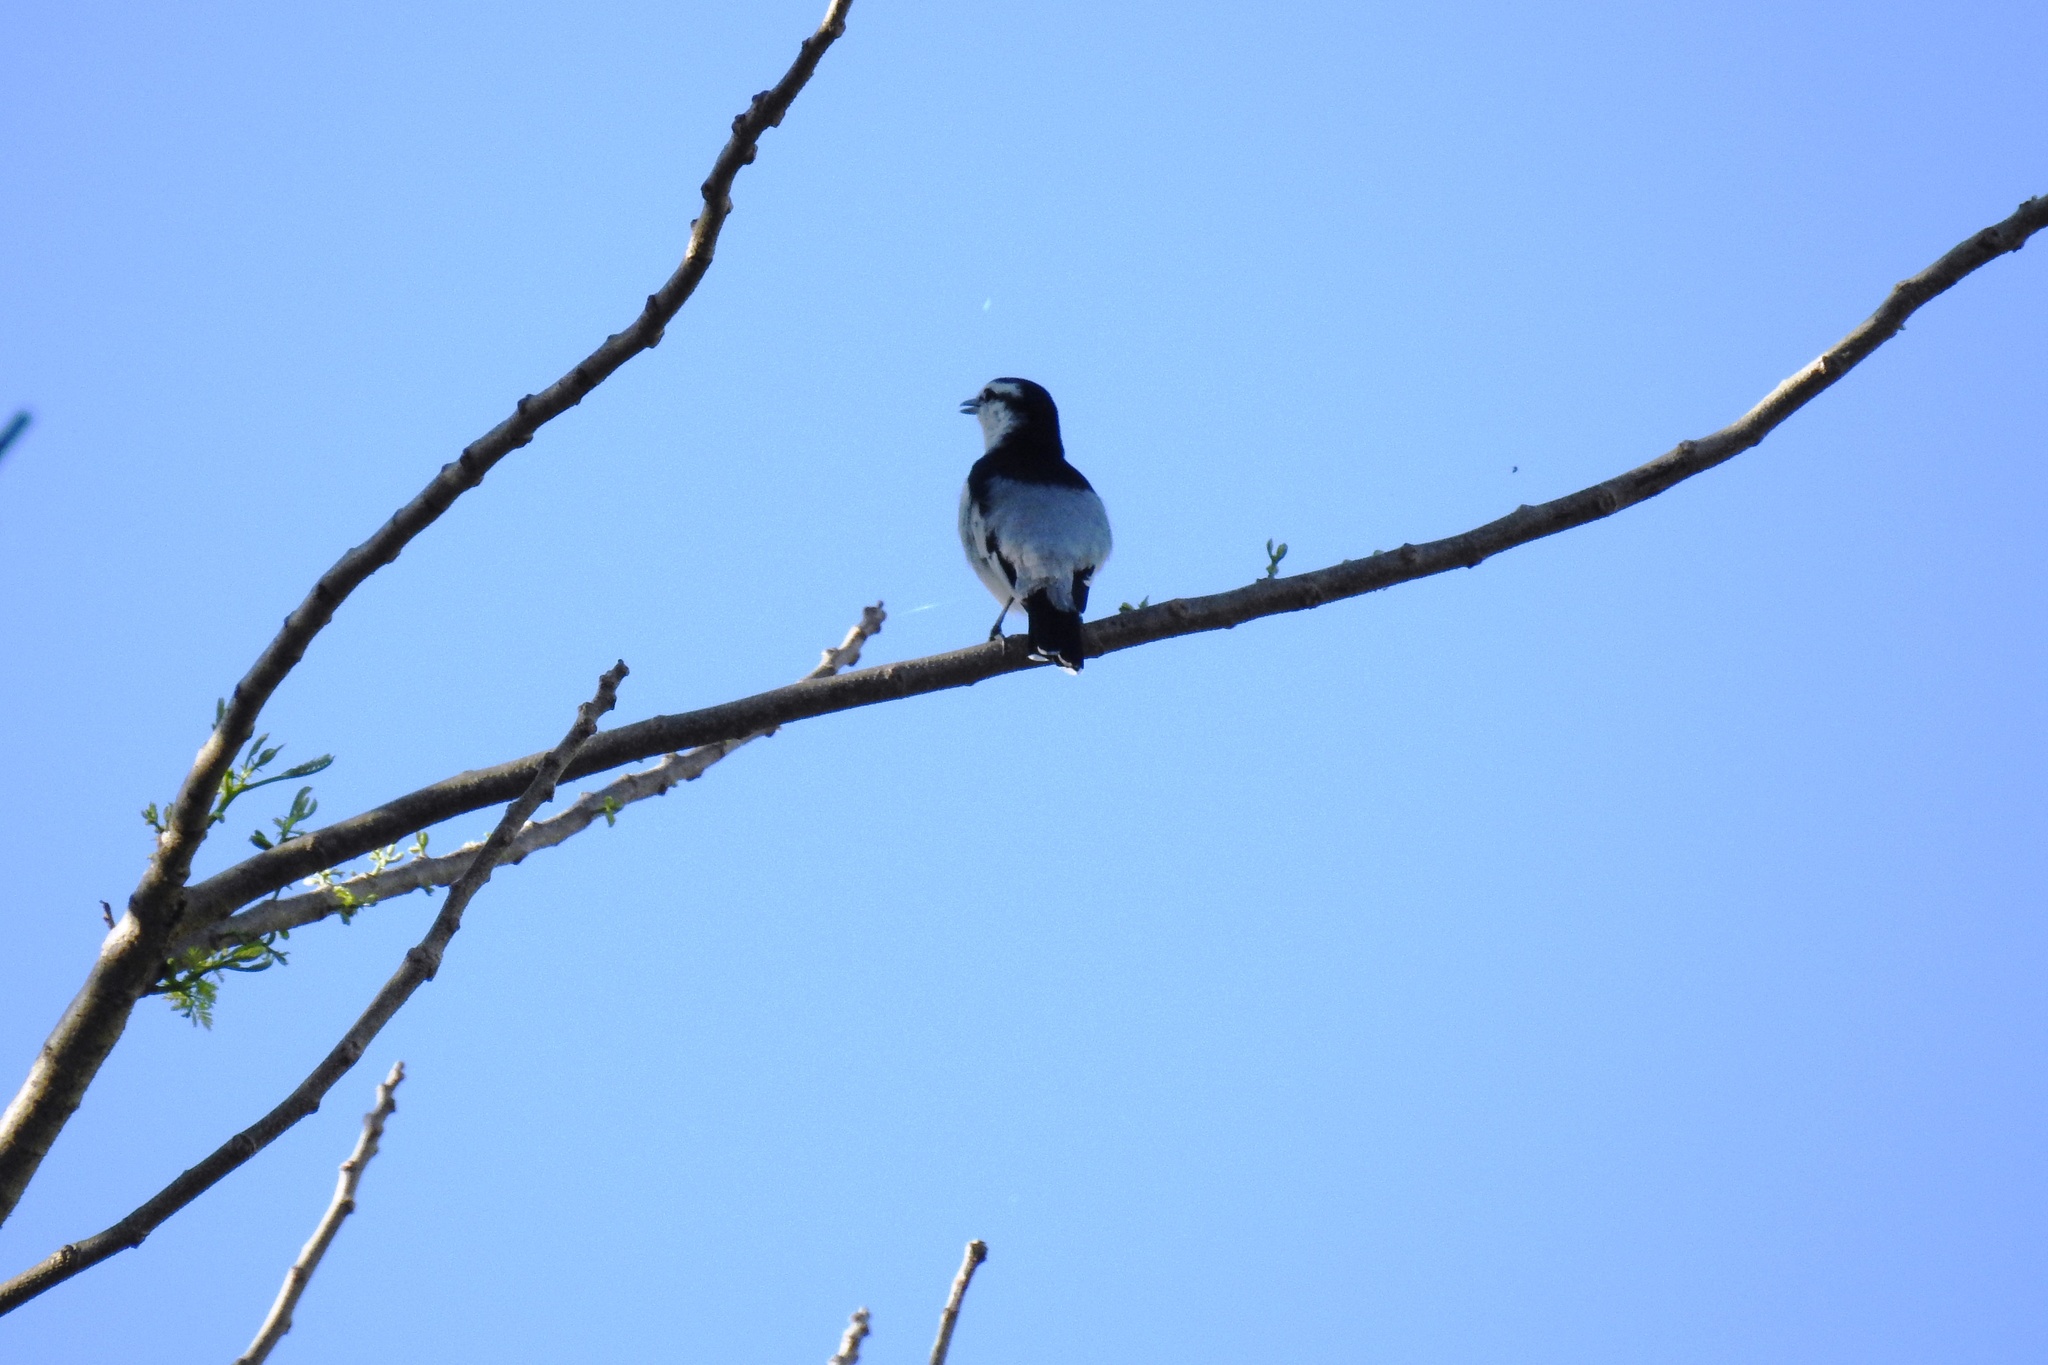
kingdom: Animalia
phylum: Chordata
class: Aves
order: Passeriformes
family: Campephagidae
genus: Lalage
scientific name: Lalage nigra
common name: Pied triller
